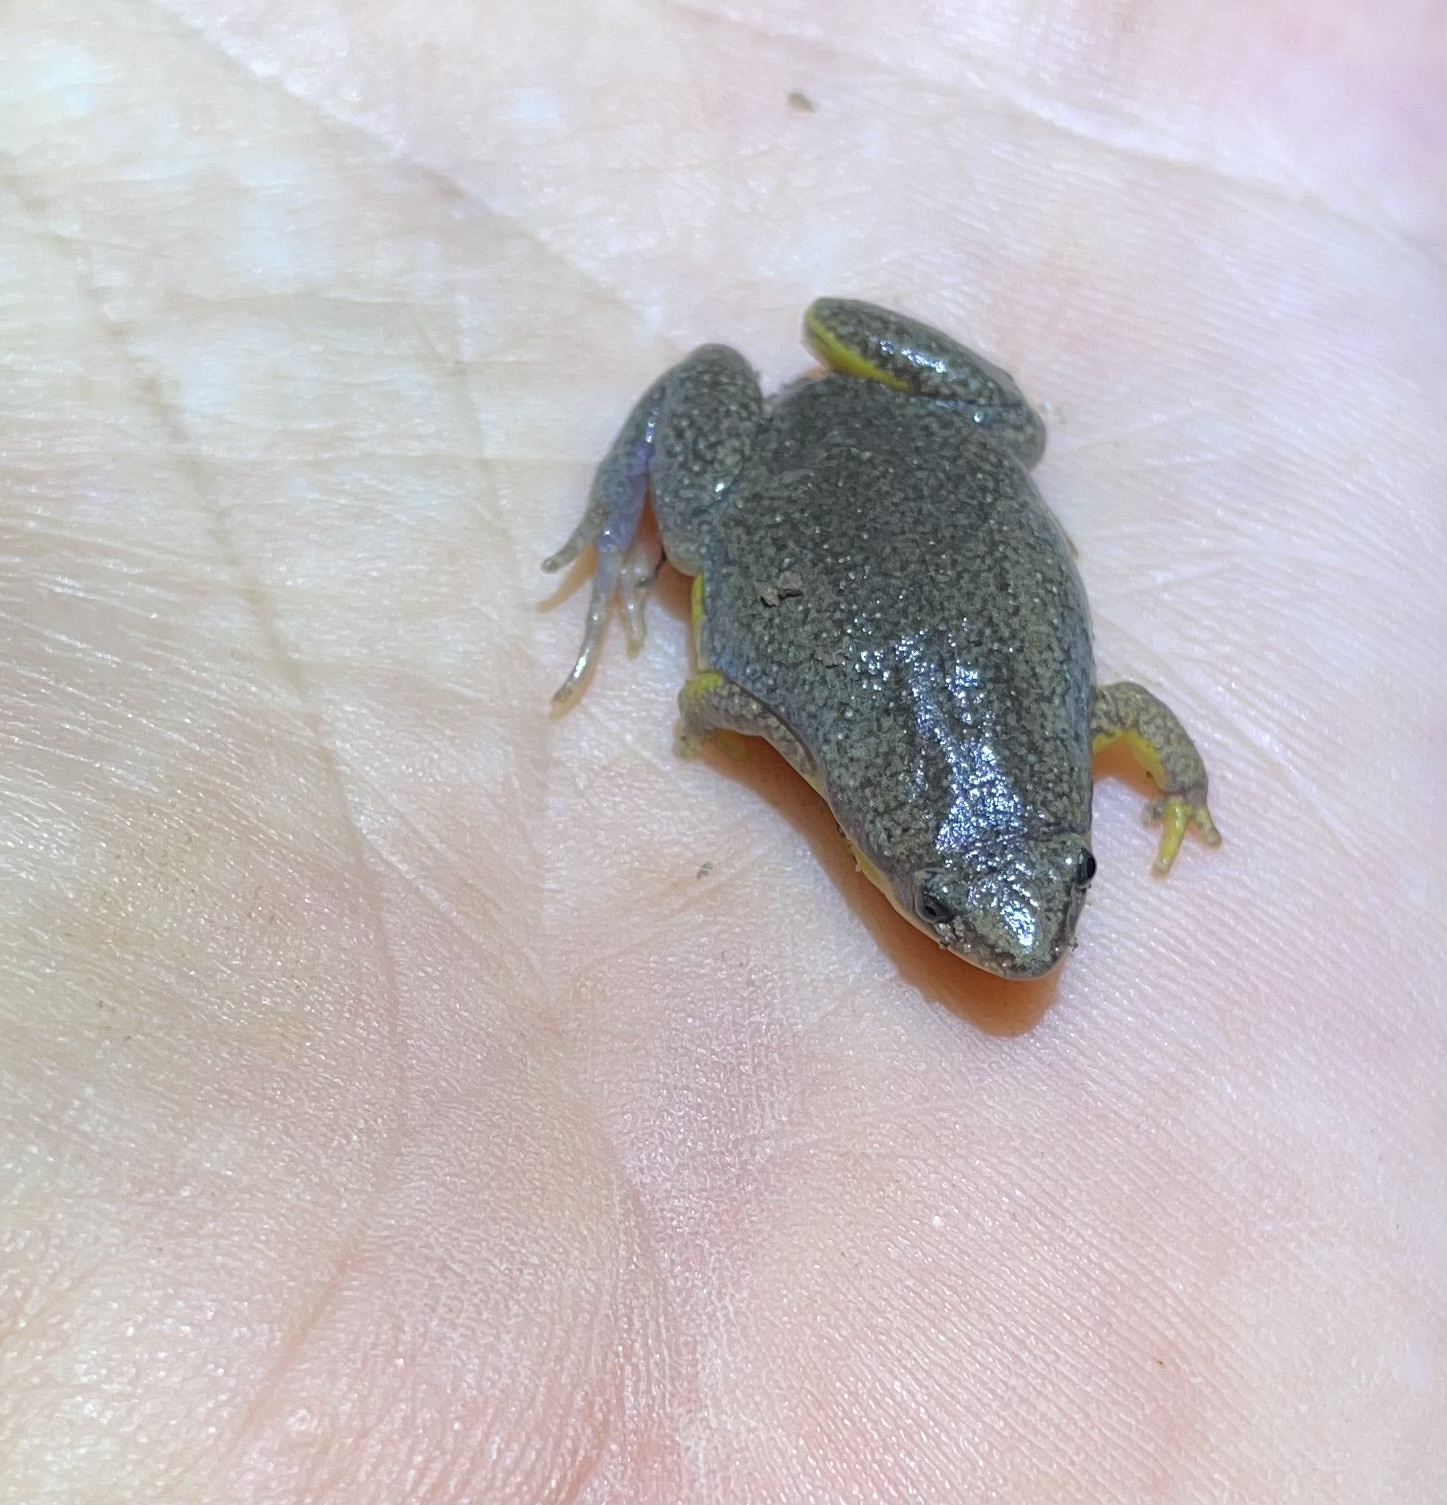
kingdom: Animalia
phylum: Chordata
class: Amphibia
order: Anura
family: Microhylidae
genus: Elachistocleis
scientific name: Elachistocleis bicolor
